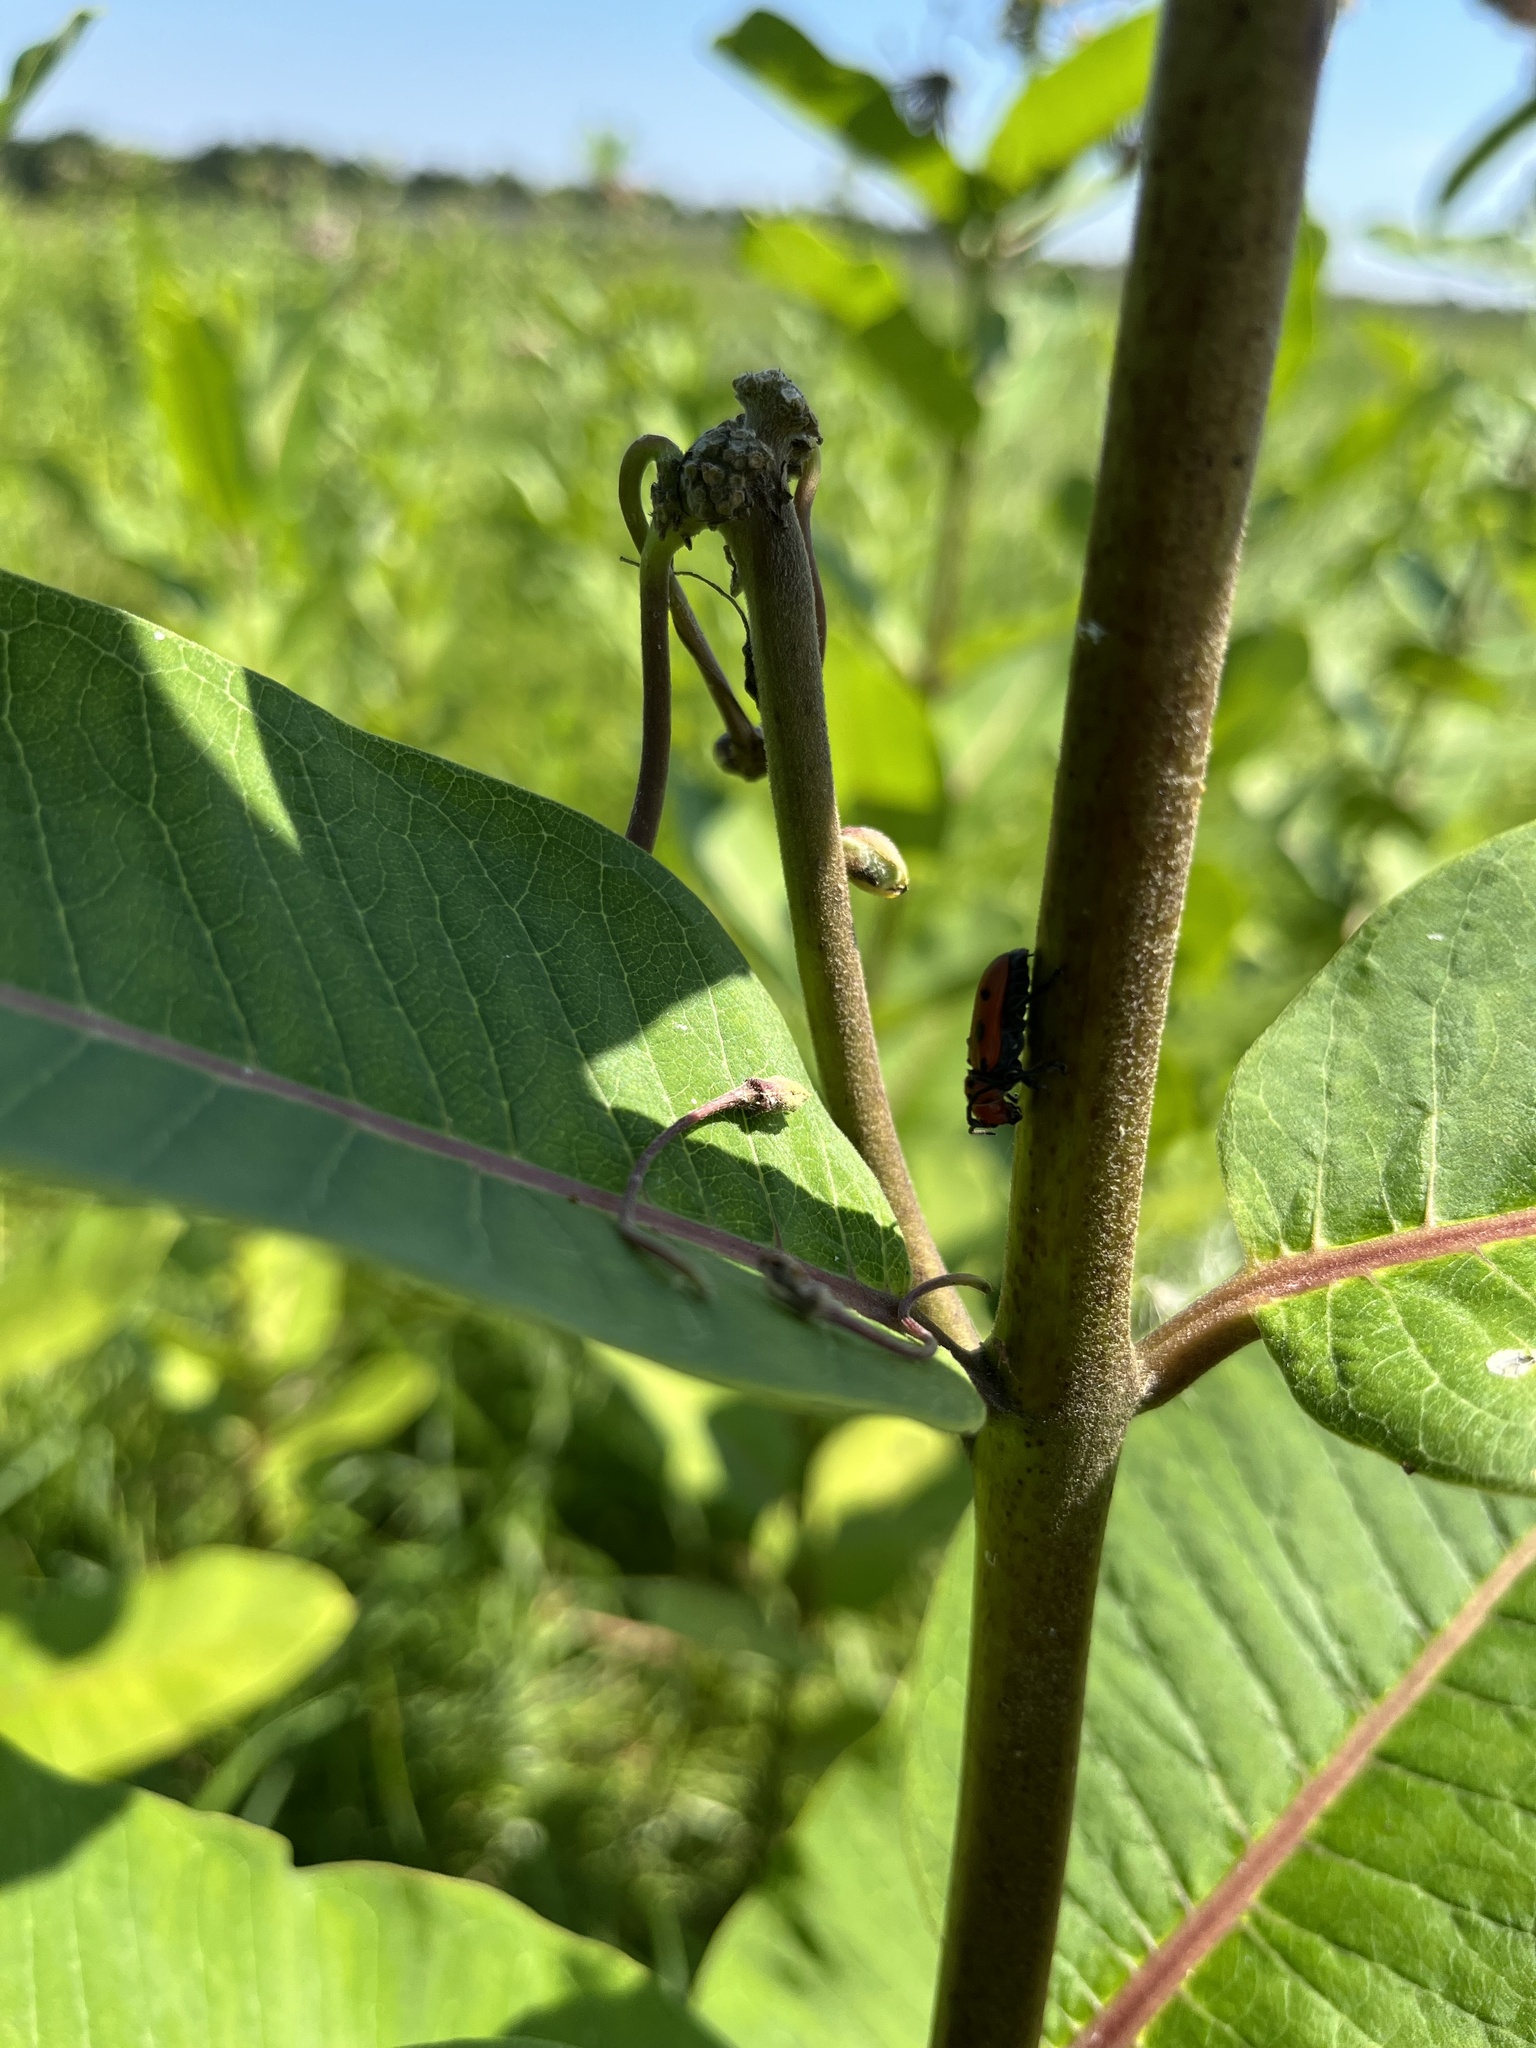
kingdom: Animalia
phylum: Arthropoda
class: Insecta
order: Coleoptera
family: Cerambycidae
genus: Tetraopes
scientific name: Tetraopes tetrophthalmus
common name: Red milkweed beetle
